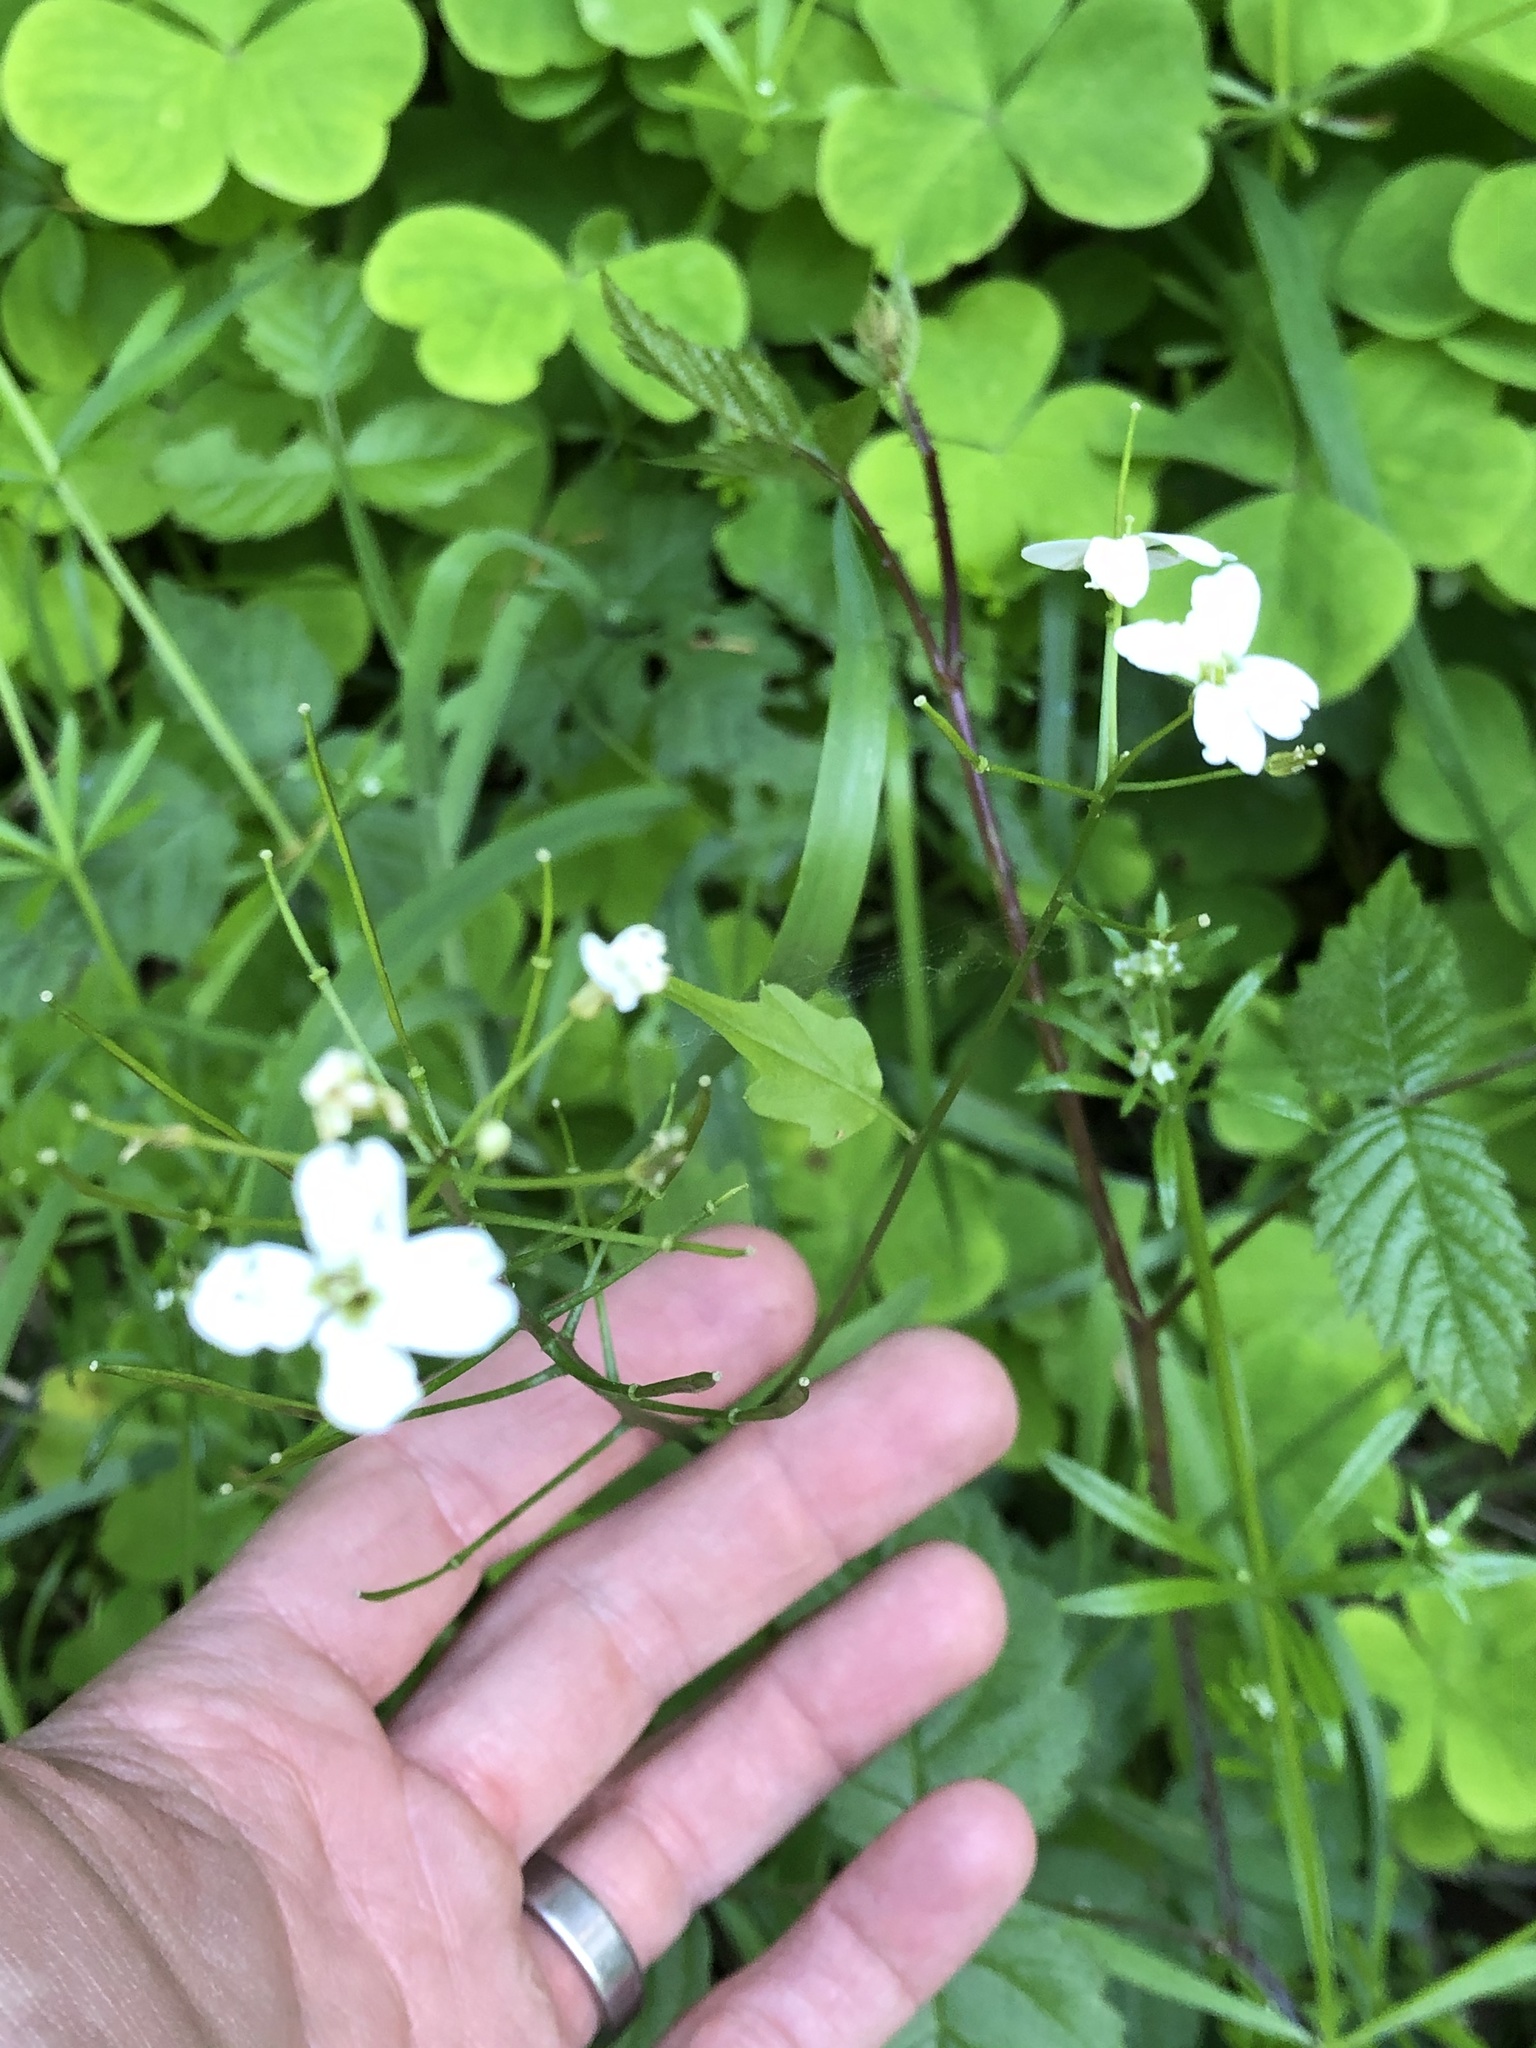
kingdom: Plantae
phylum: Tracheophyta
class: Magnoliopsida
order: Brassicales
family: Brassicaceae
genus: Cardamine
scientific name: Cardamine angulata
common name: Angled bittercress
